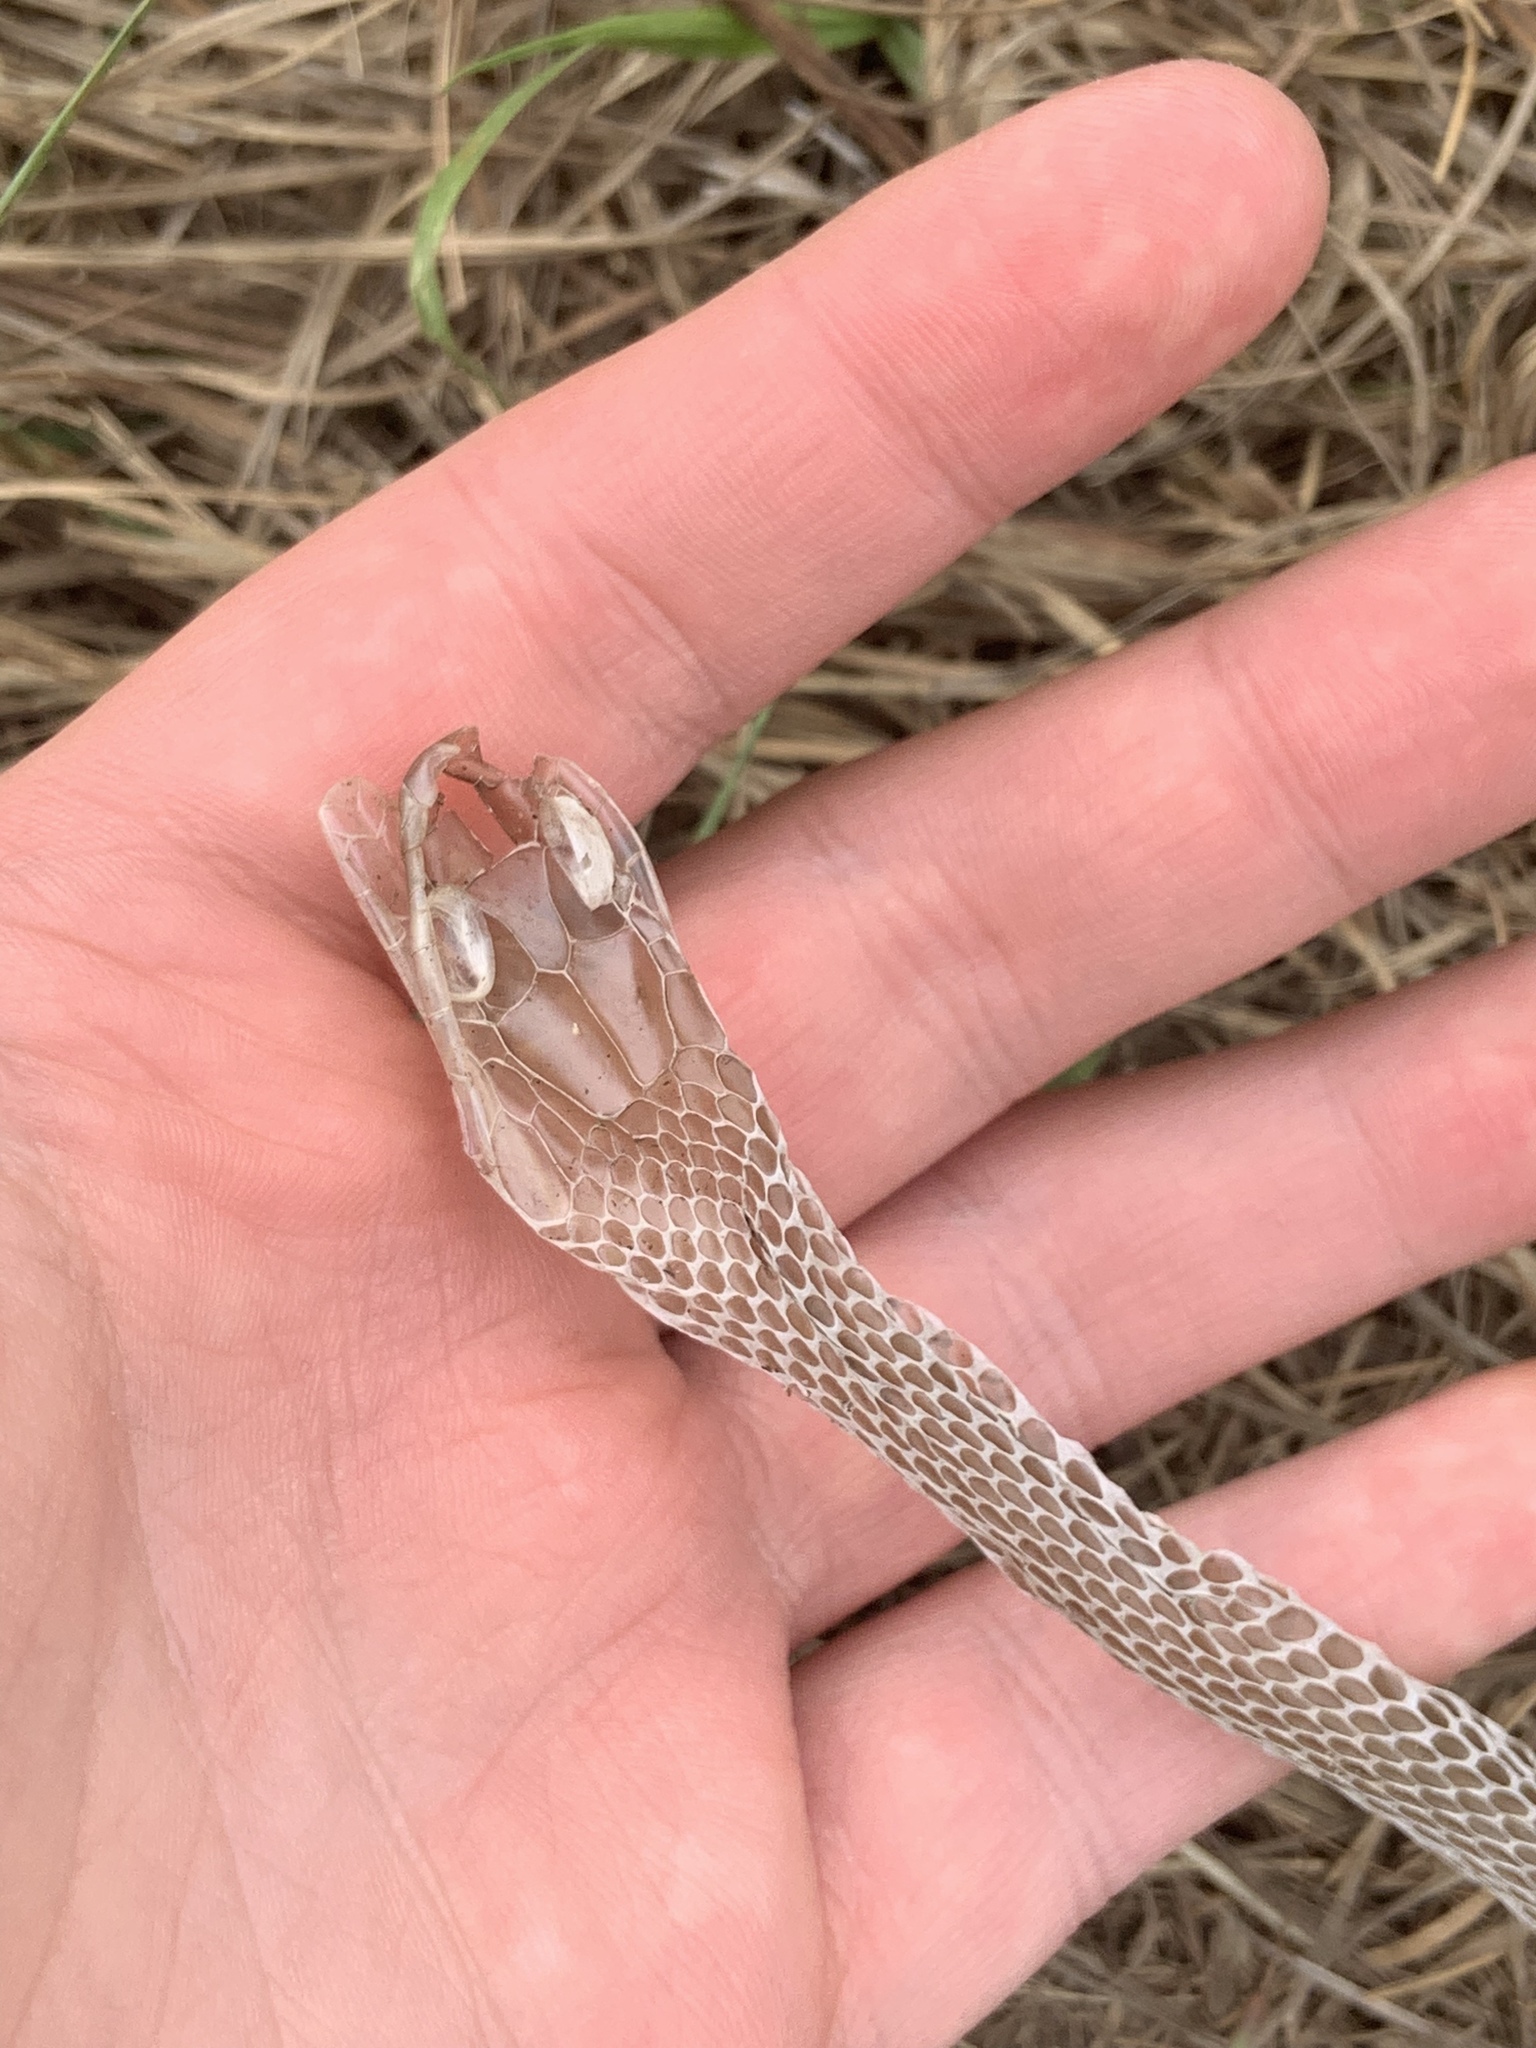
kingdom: Animalia
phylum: Chordata
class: Squamata
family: Colubridae
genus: Coluber
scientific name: Coluber constrictor
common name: Eastern racer
